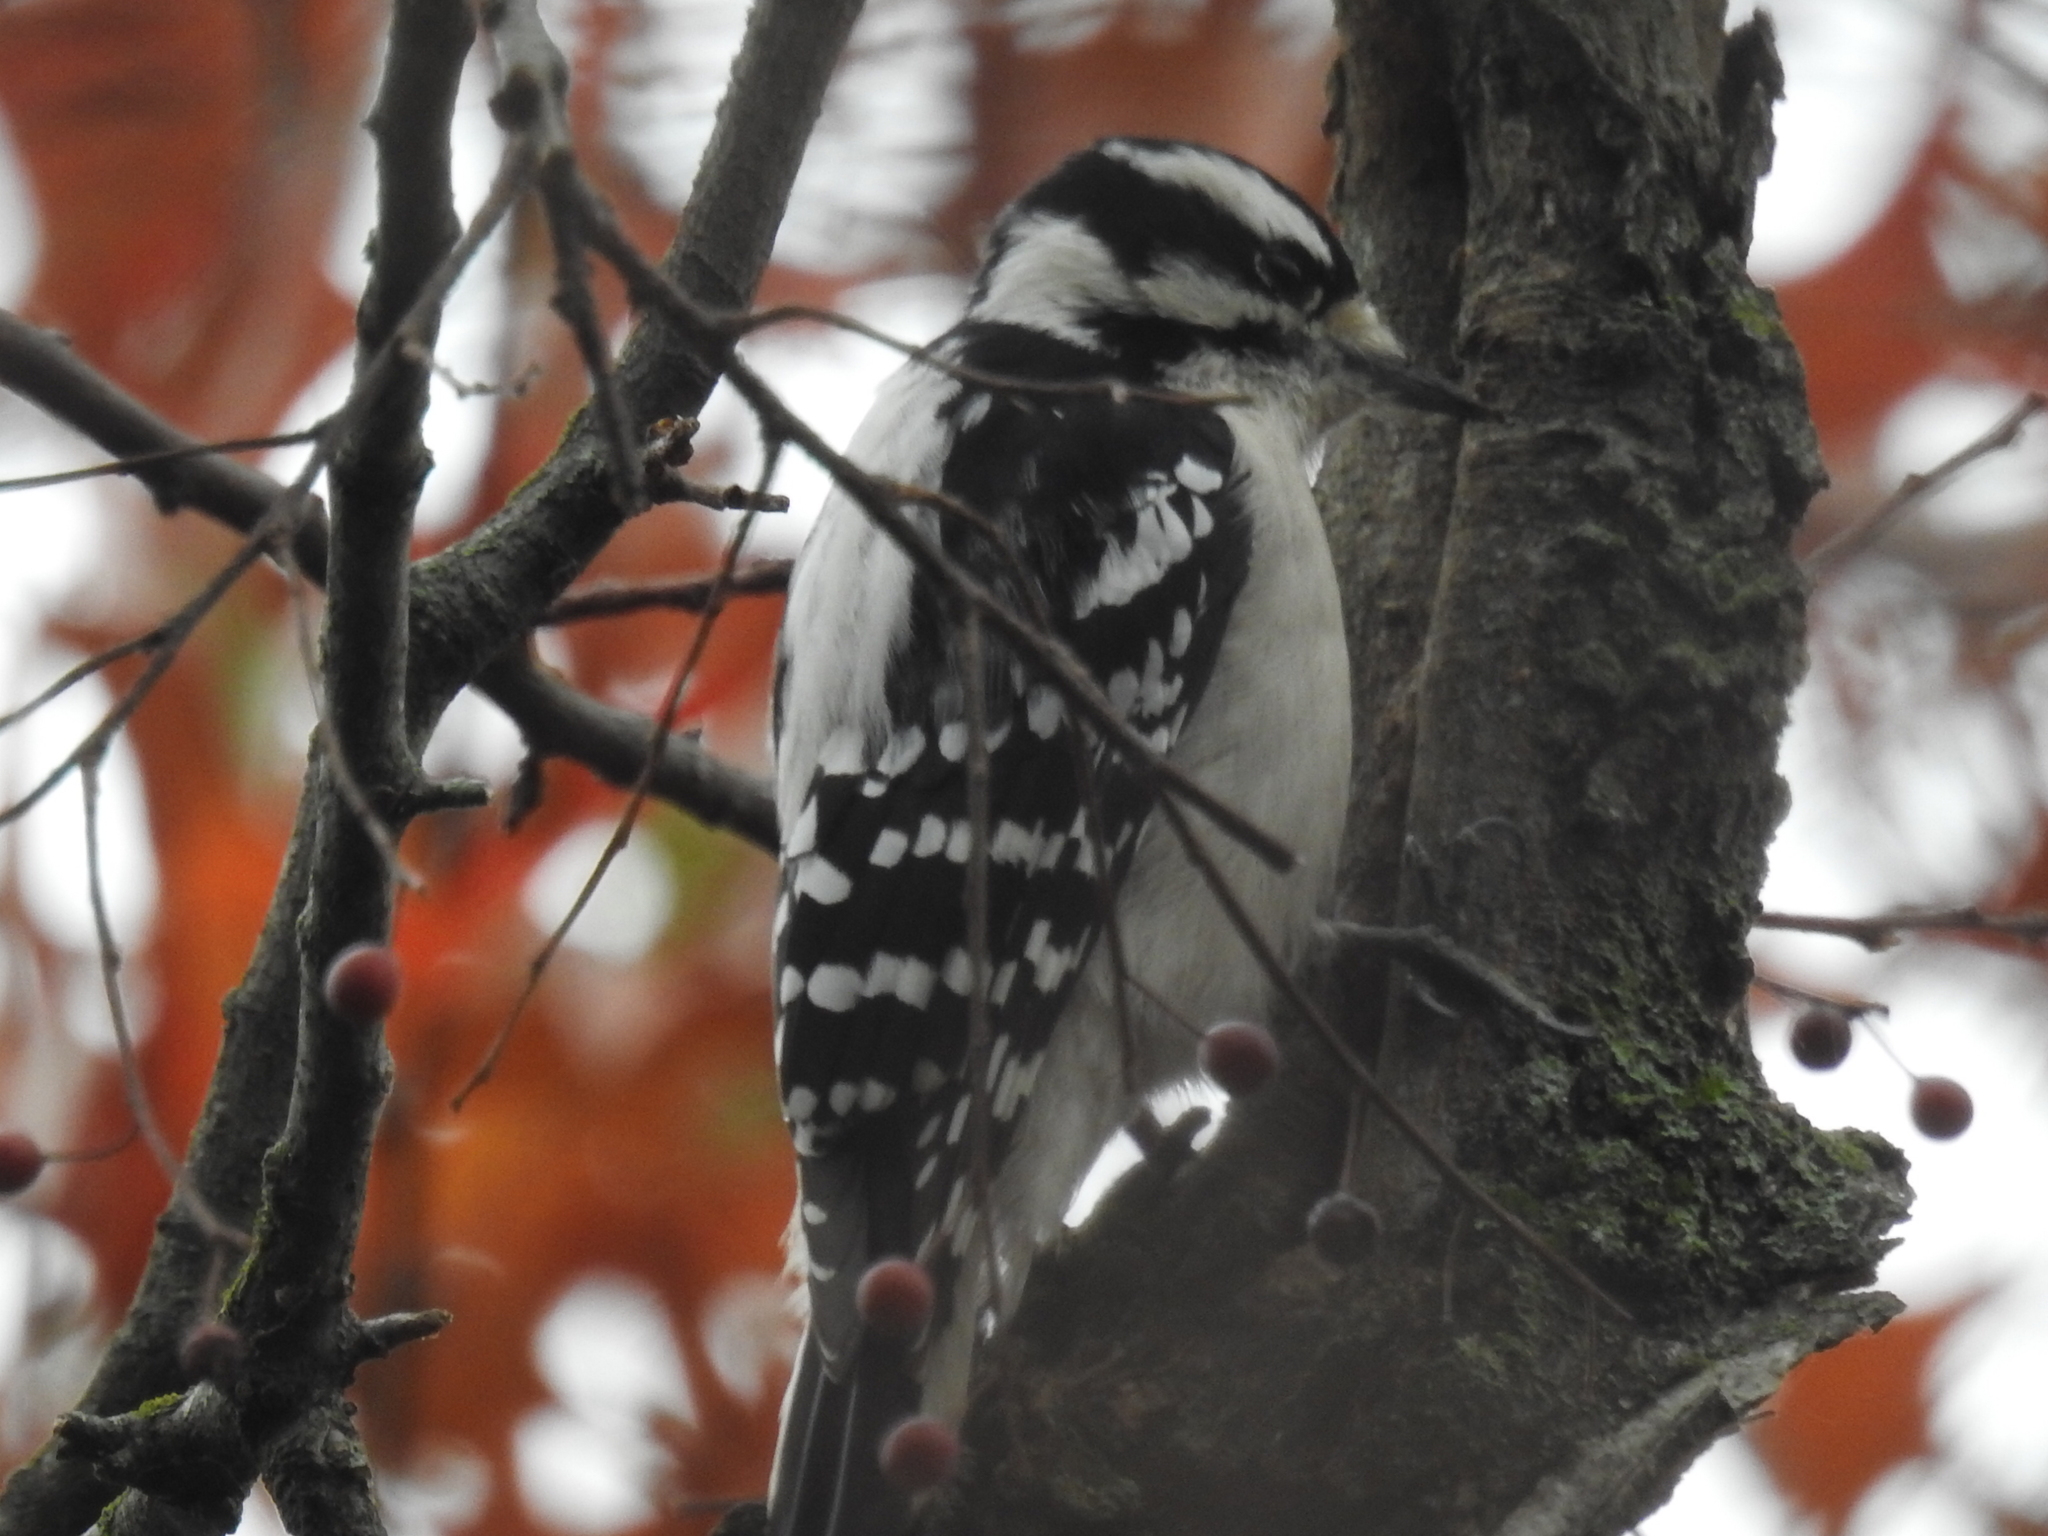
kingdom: Animalia
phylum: Chordata
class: Aves
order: Piciformes
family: Picidae
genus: Dryobates
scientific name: Dryobates pubescens
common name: Downy woodpecker
